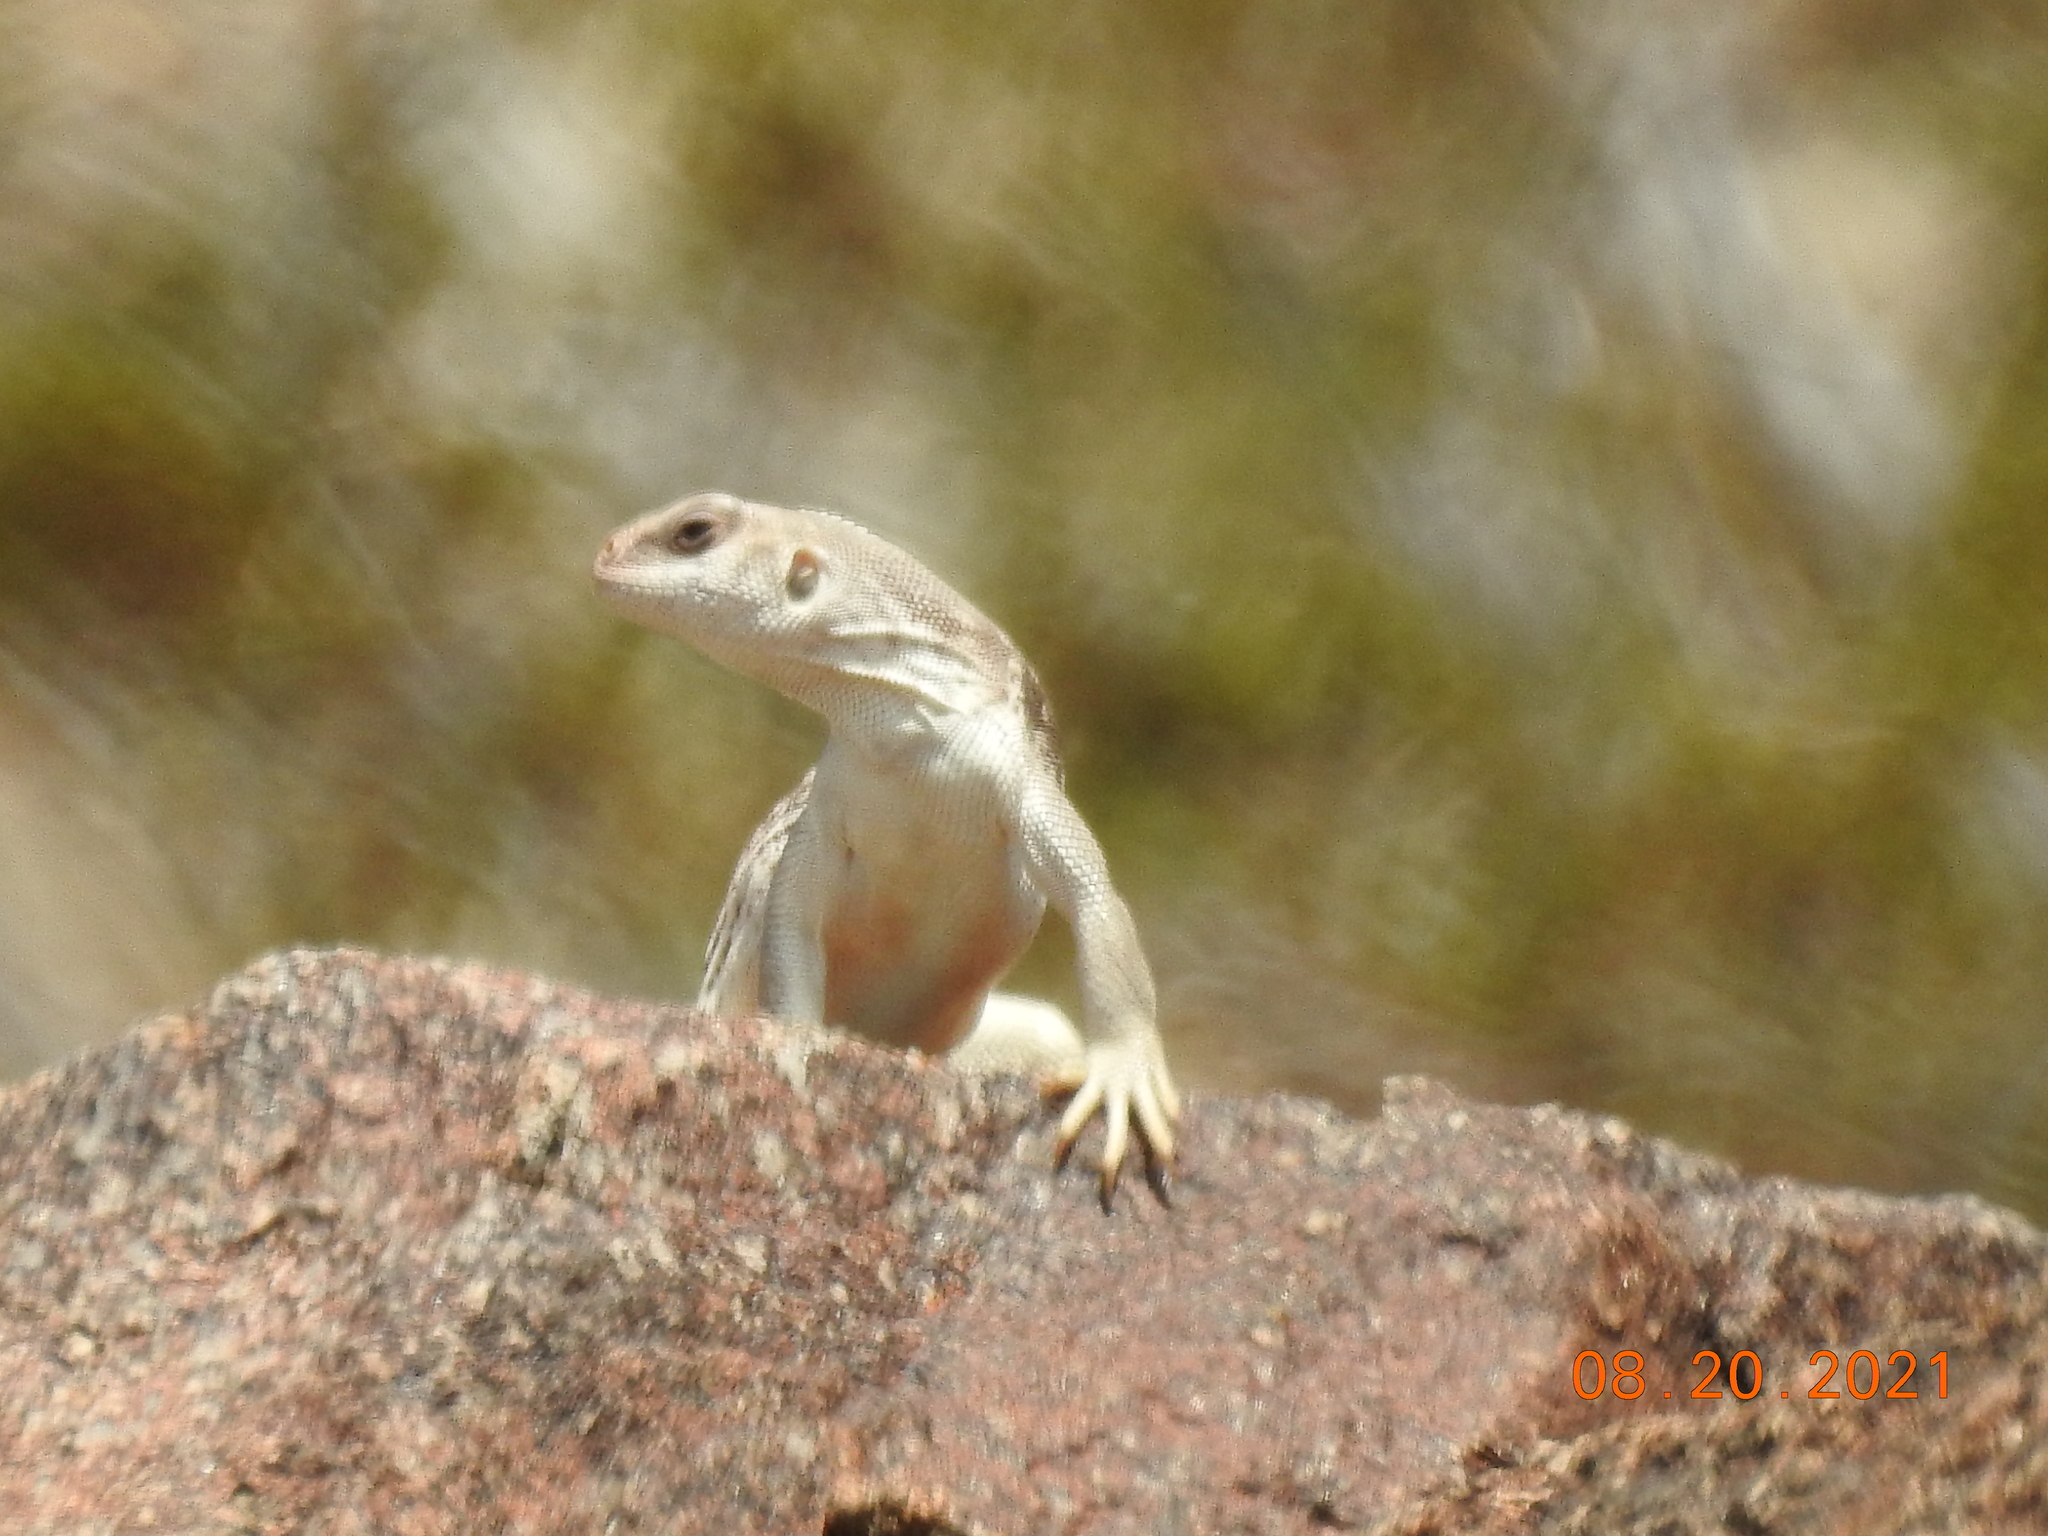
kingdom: Animalia
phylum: Chordata
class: Squamata
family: Iguanidae
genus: Dipsosaurus
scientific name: Dipsosaurus dorsalis
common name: Desert iguana
